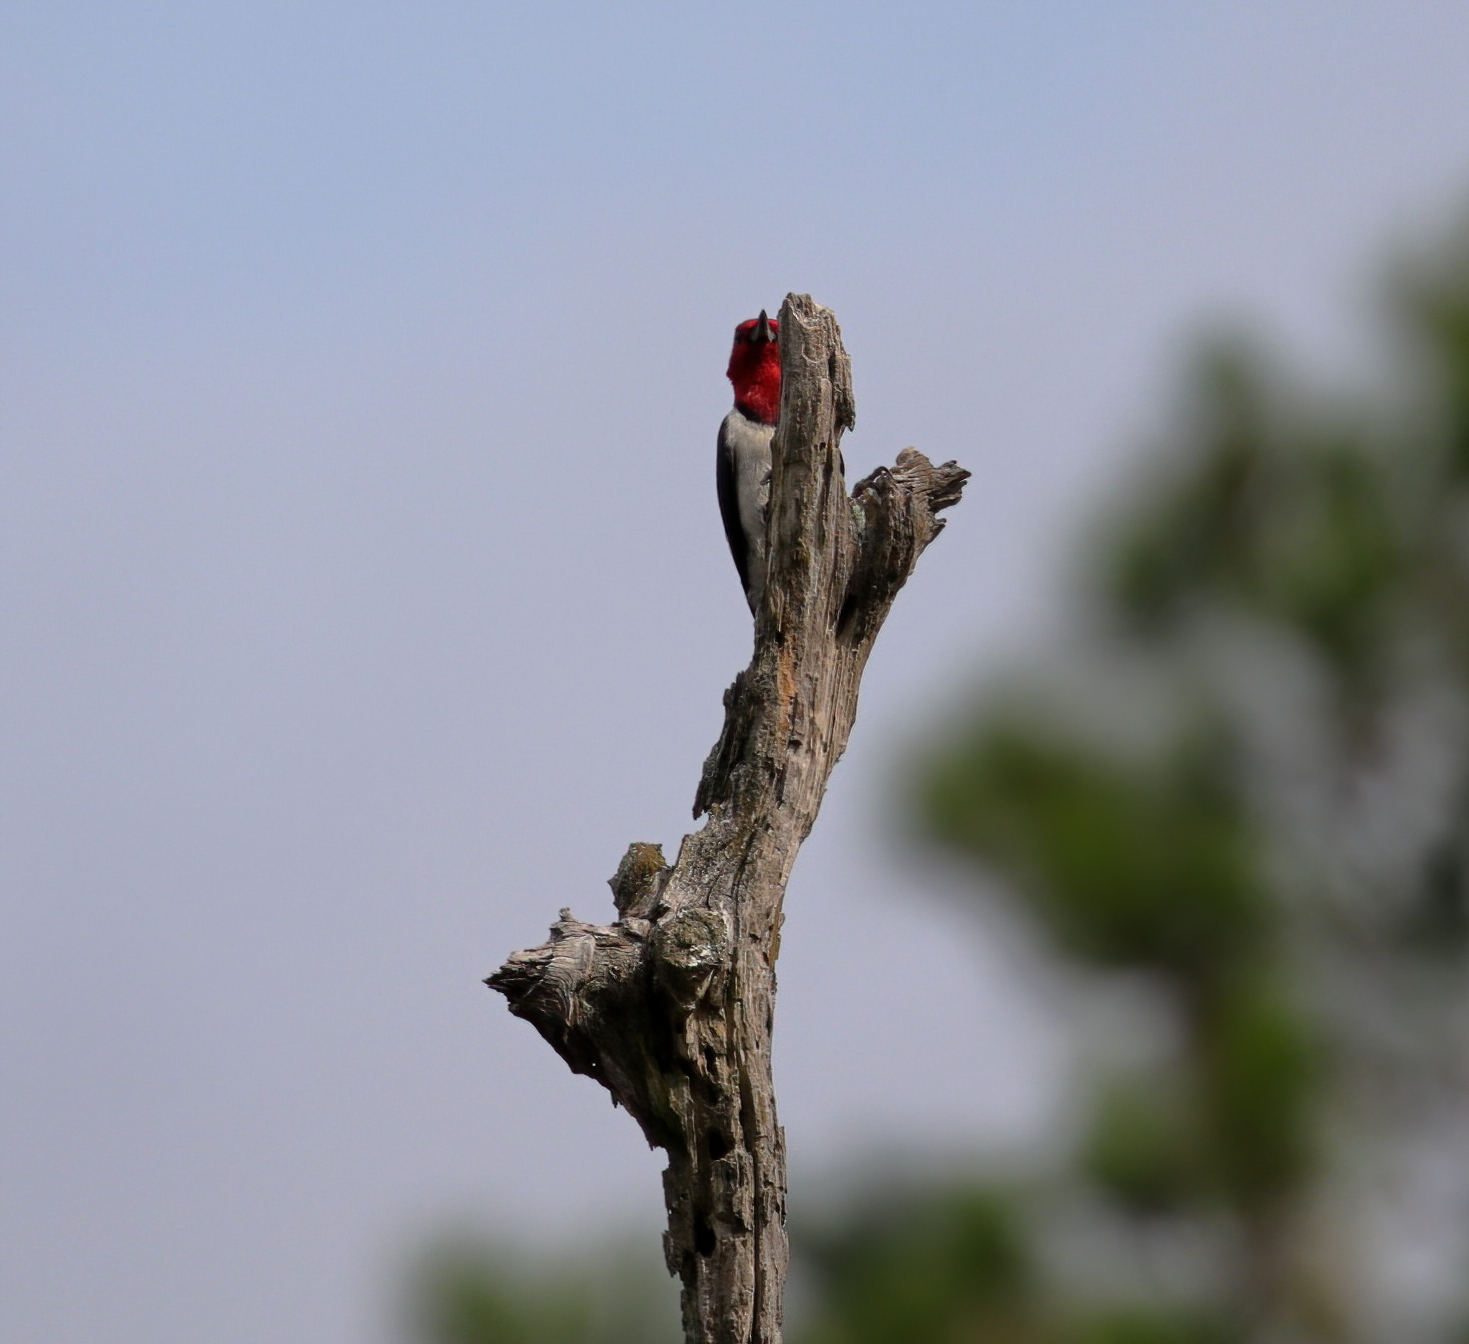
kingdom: Animalia
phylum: Chordata
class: Aves
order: Piciformes
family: Picidae
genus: Melanerpes
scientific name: Melanerpes erythrocephalus
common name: Red-headed woodpecker
